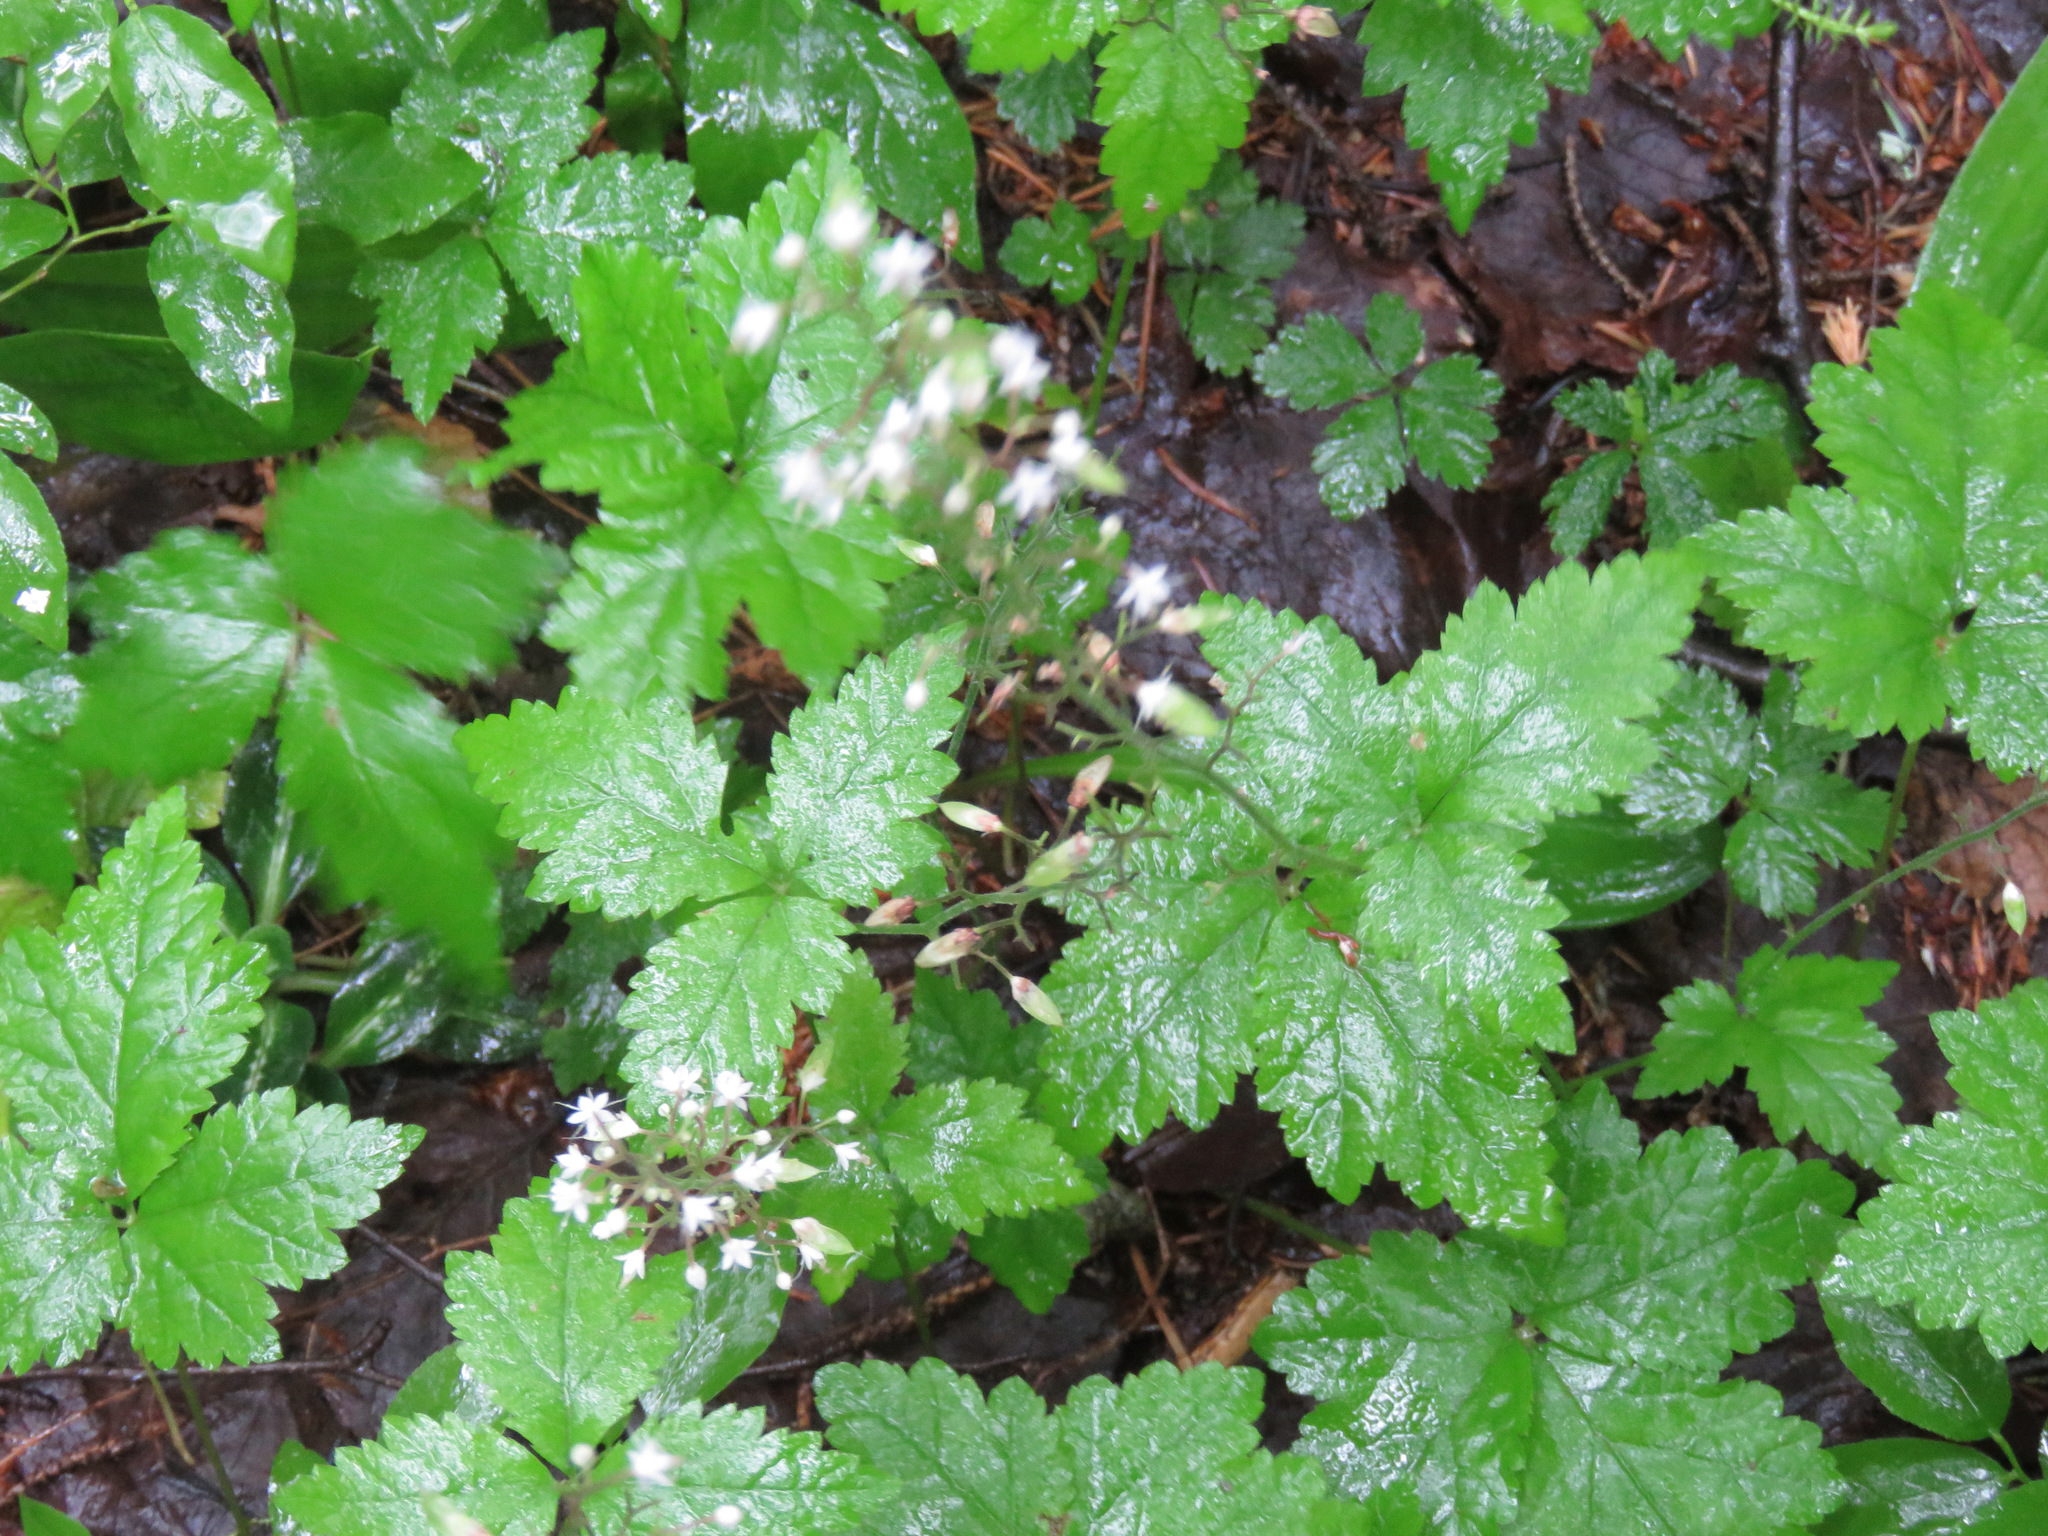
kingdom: Plantae
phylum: Tracheophyta
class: Magnoliopsida
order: Saxifragales
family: Saxifragaceae
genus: Tiarella
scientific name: Tiarella trifoliata
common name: Sugar-scoop
